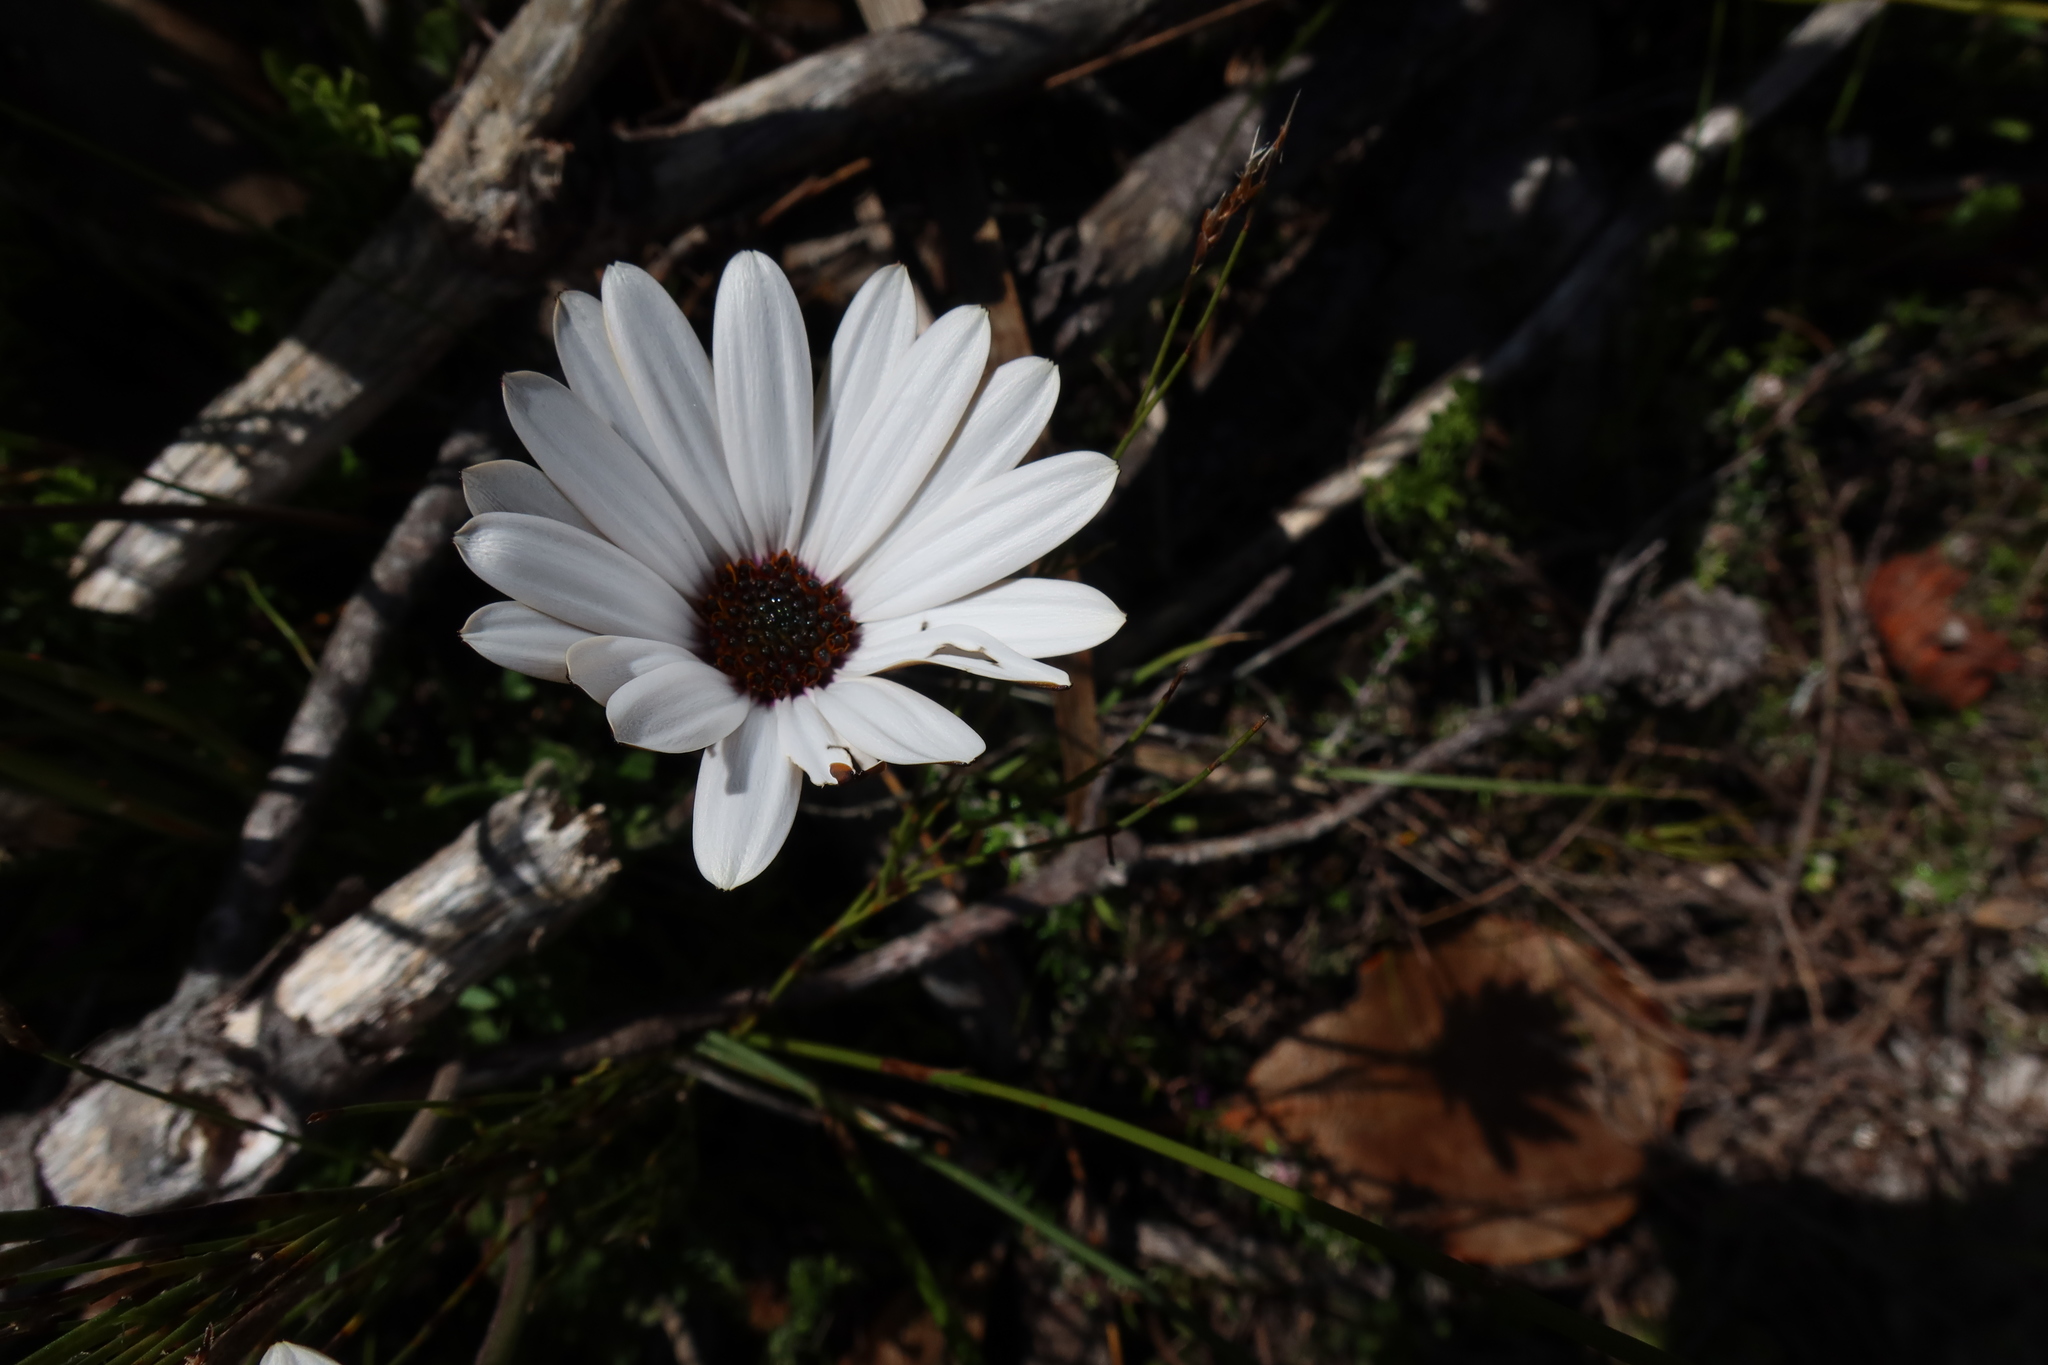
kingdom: Plantae
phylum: Tracheophyta
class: Magnoliopsida
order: Asterales
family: Asteraceae
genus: Dimorphotheca
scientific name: Dimorphotheca nudicaulis
